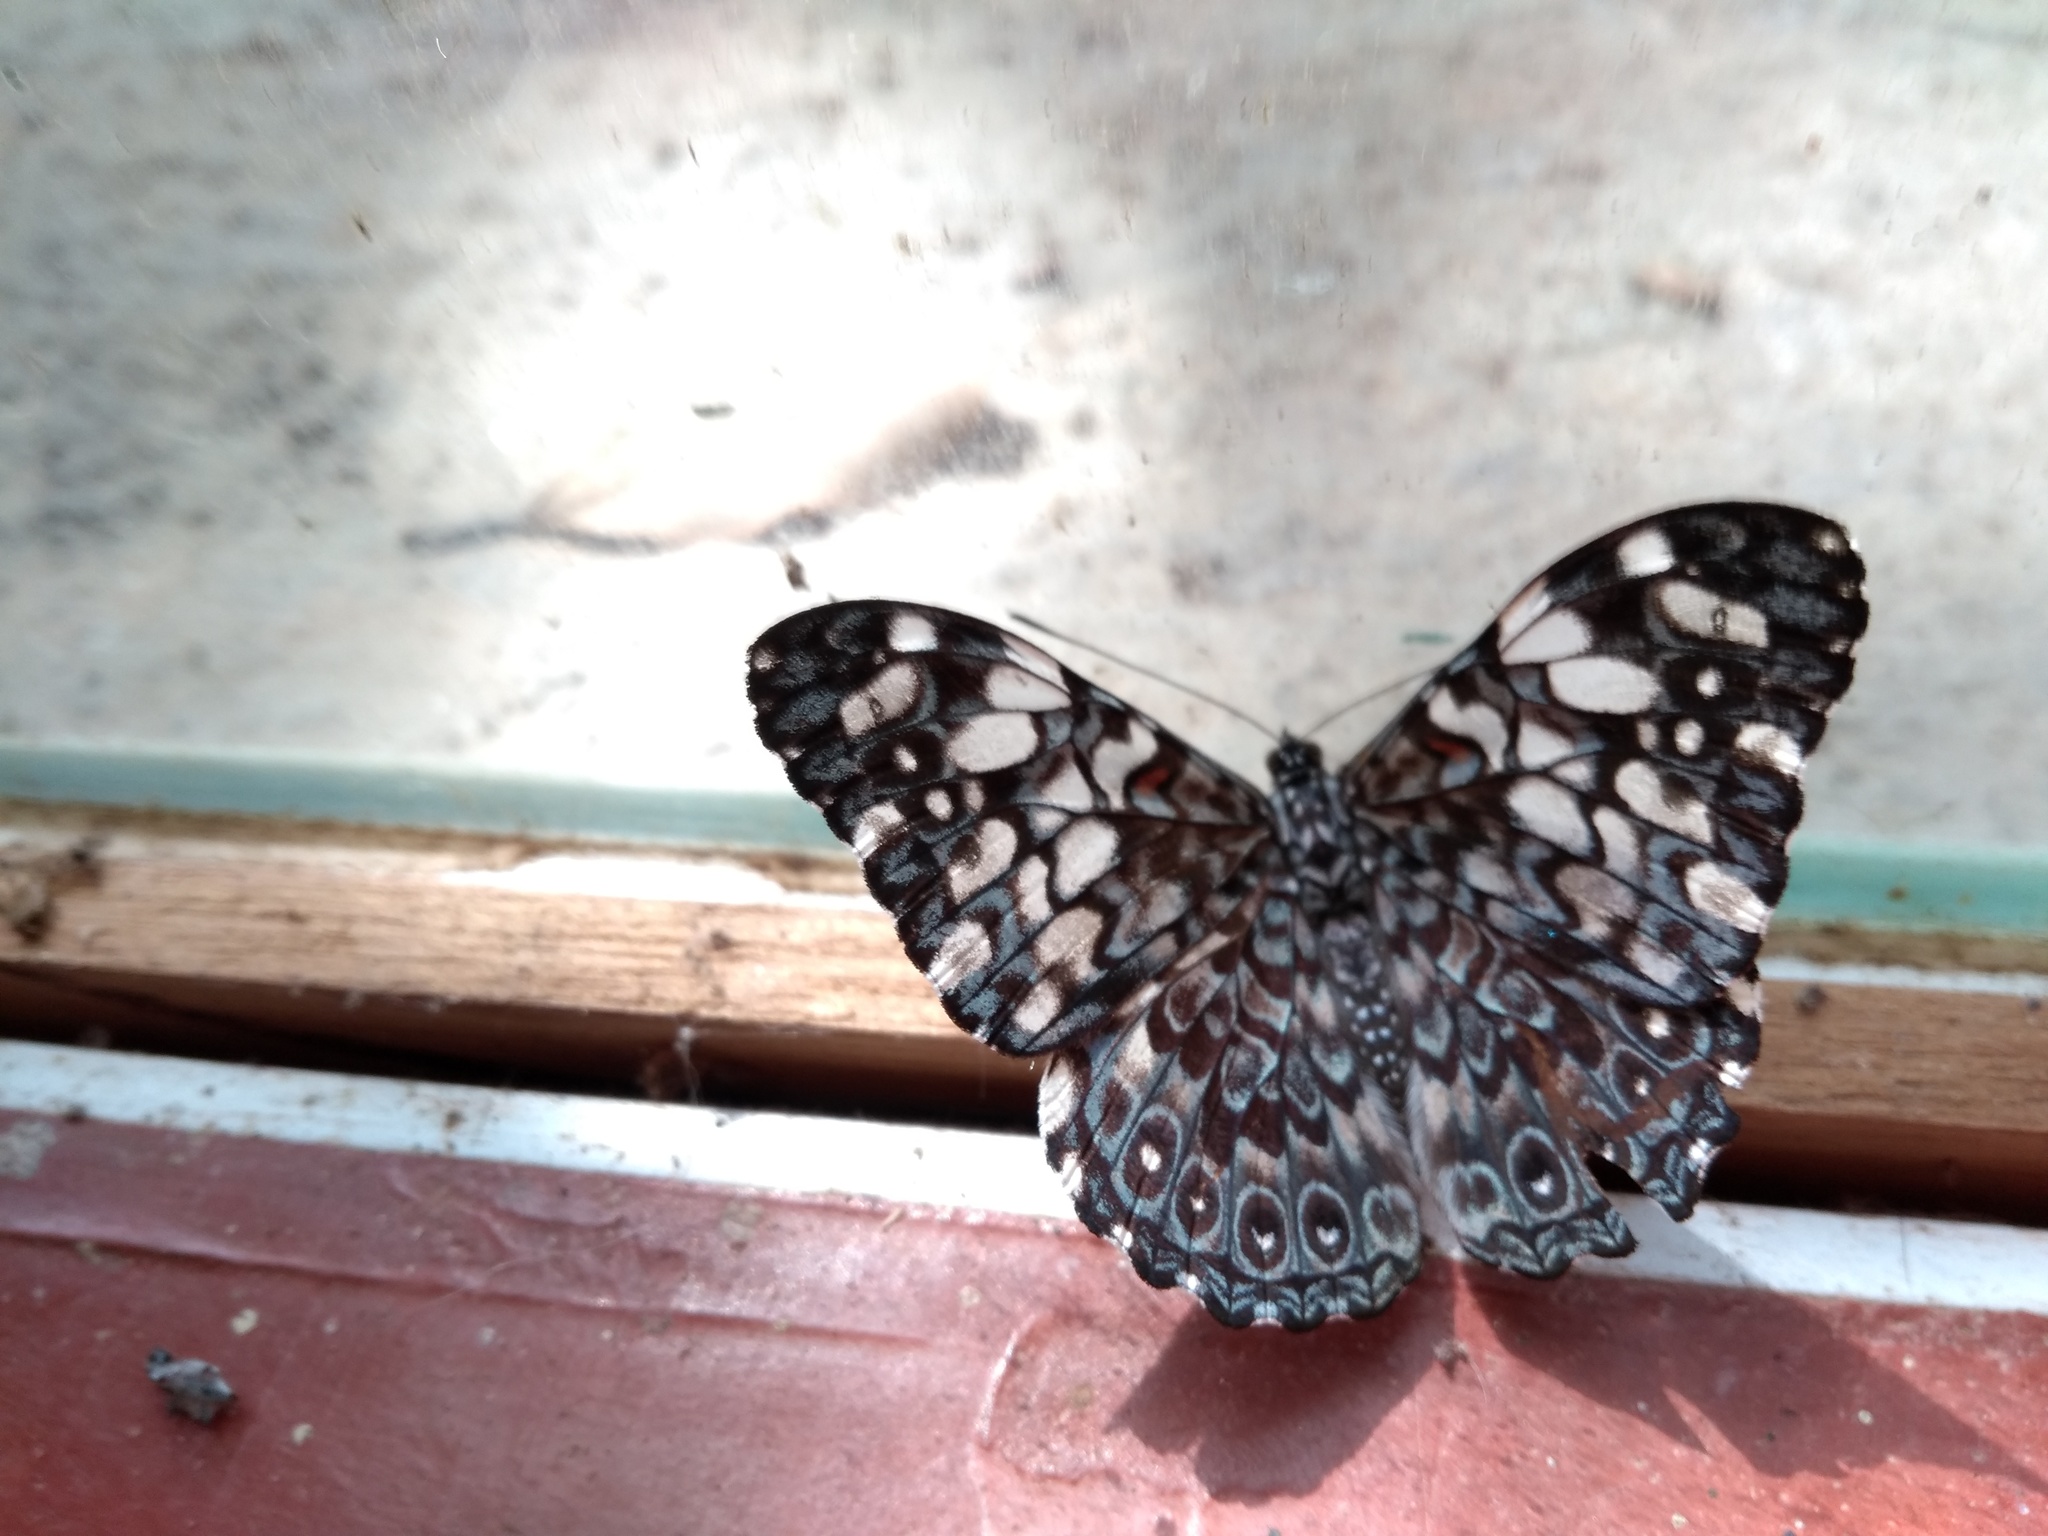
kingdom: Animalia
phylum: Arthropoda
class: Insecta
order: Lepidoptera
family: Nymphalidae
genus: Hamadryas
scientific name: Hamadryas fornax
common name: Orange cracker
